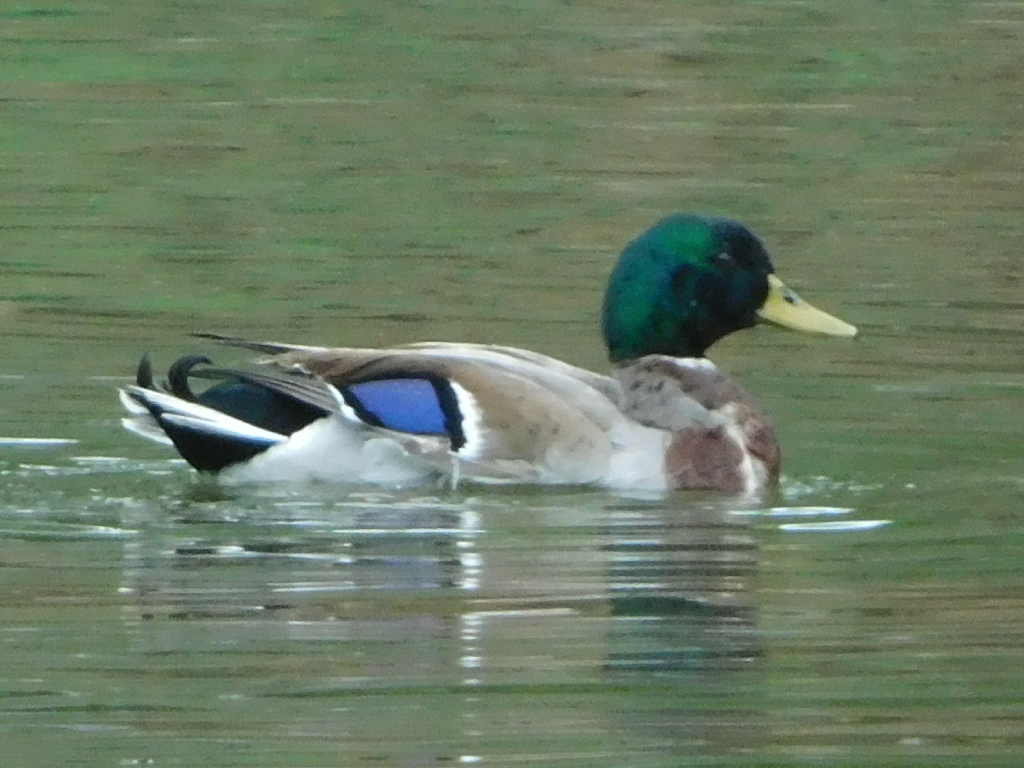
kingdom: Animalia
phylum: Chordata
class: Aves
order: Anseriformes
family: Anatidae
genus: Anas
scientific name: Anas platyrhynchos
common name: Mallard
